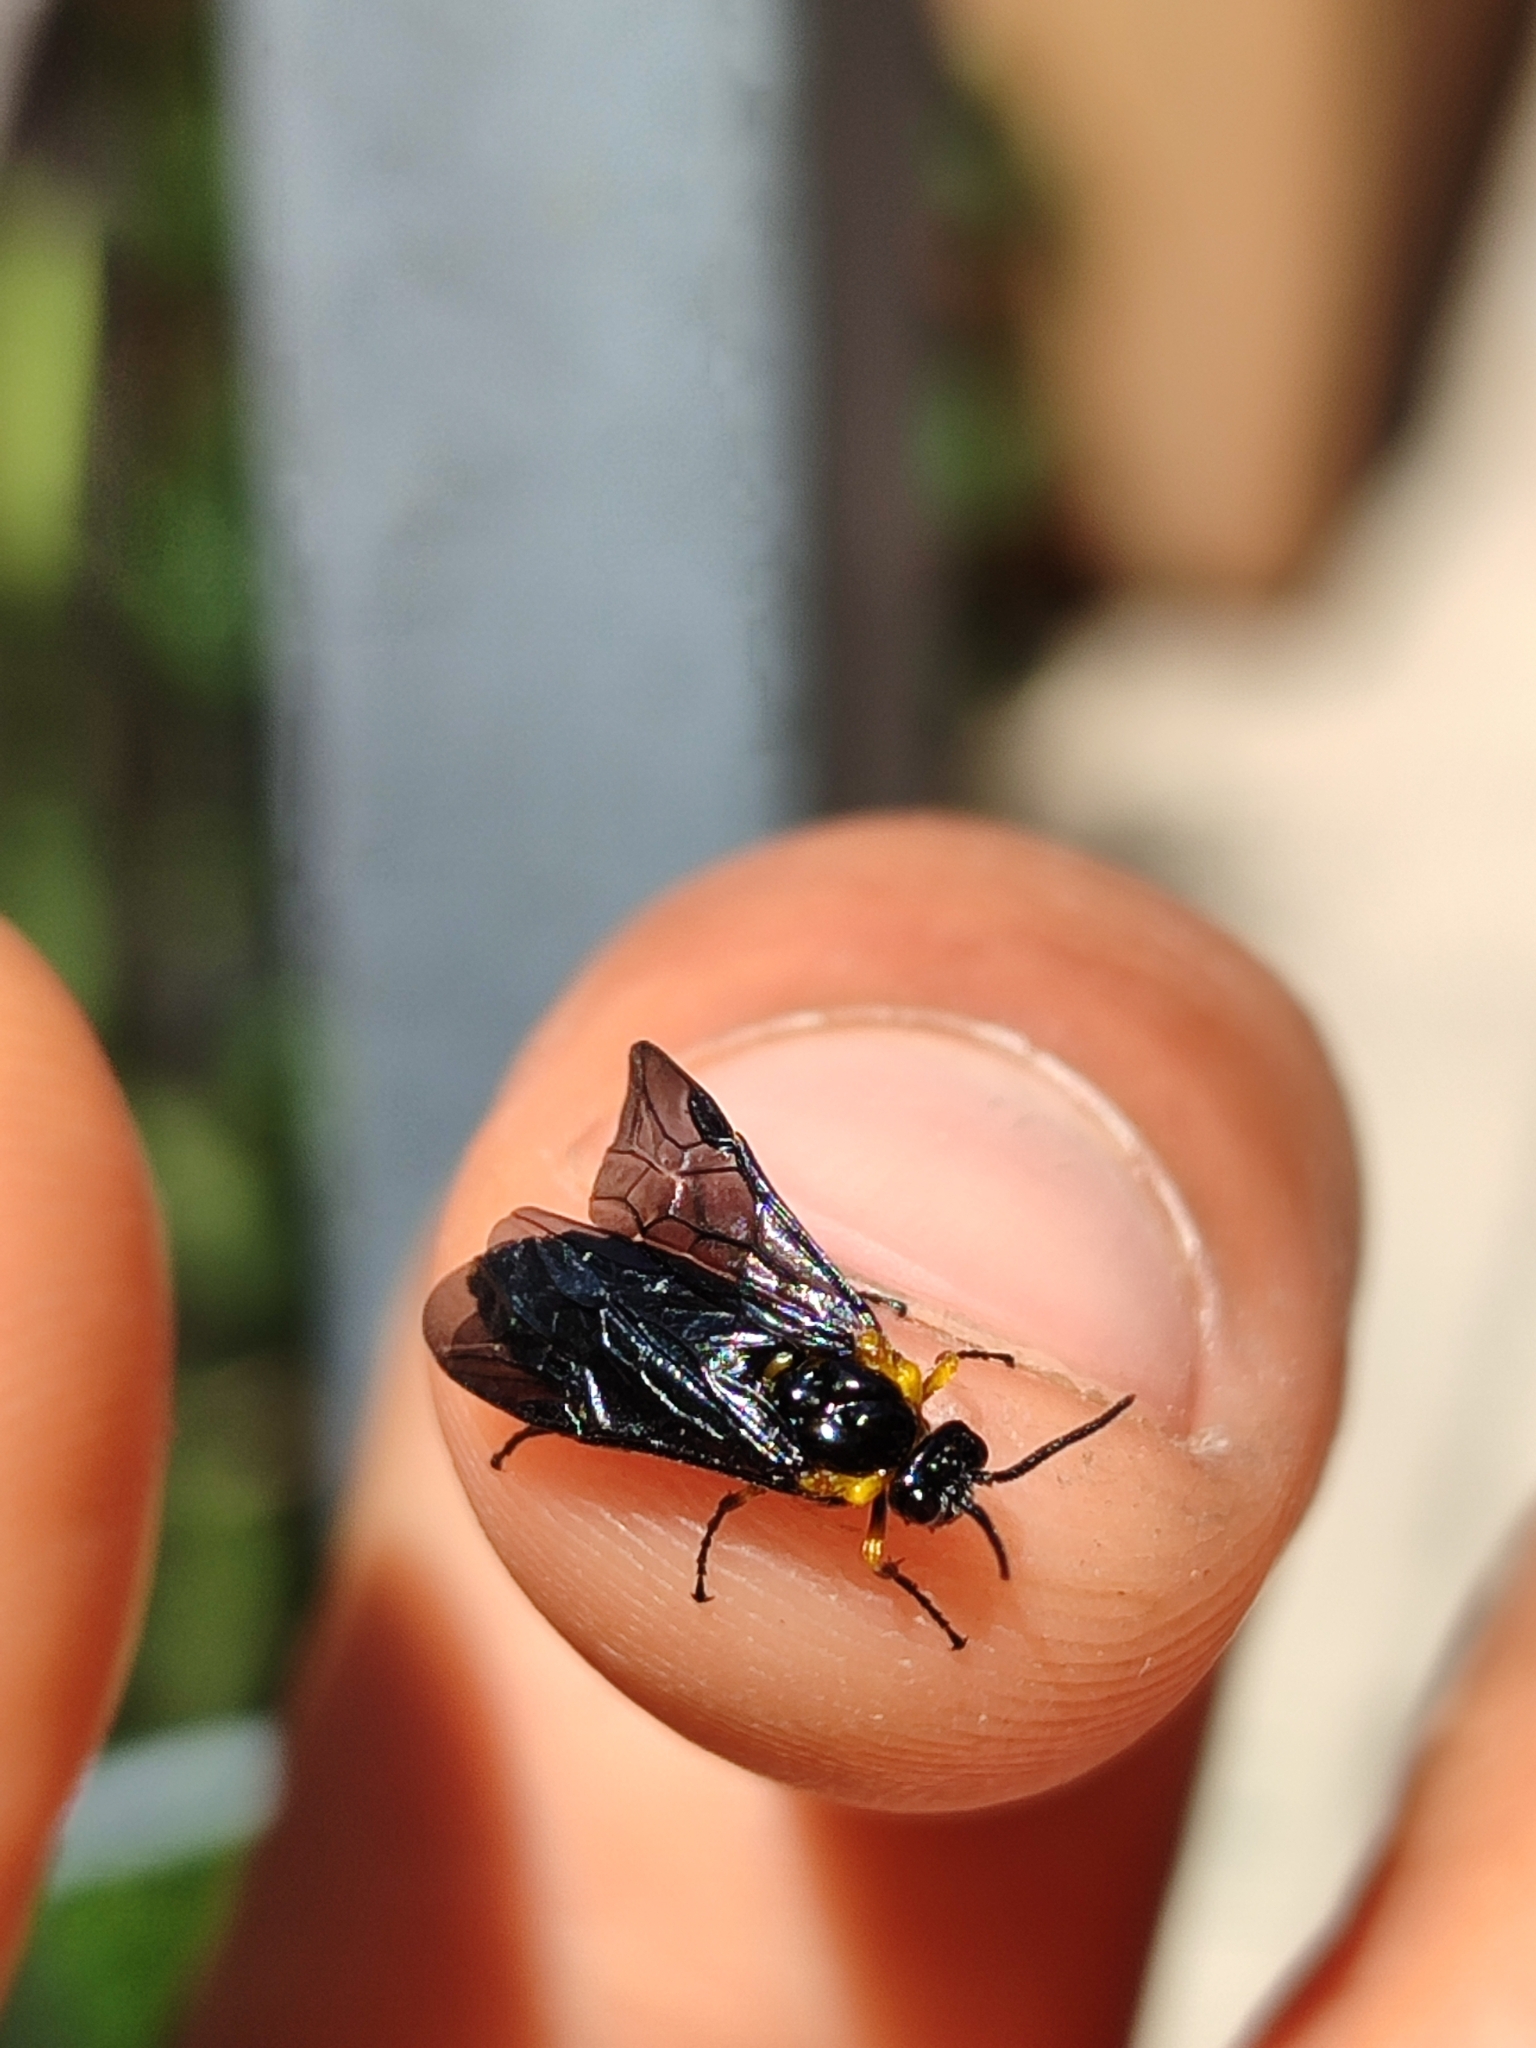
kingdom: Animalia
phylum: Arthropoda
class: Insecta
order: Hymenoptera
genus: Adurgoa
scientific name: Adurgoa
